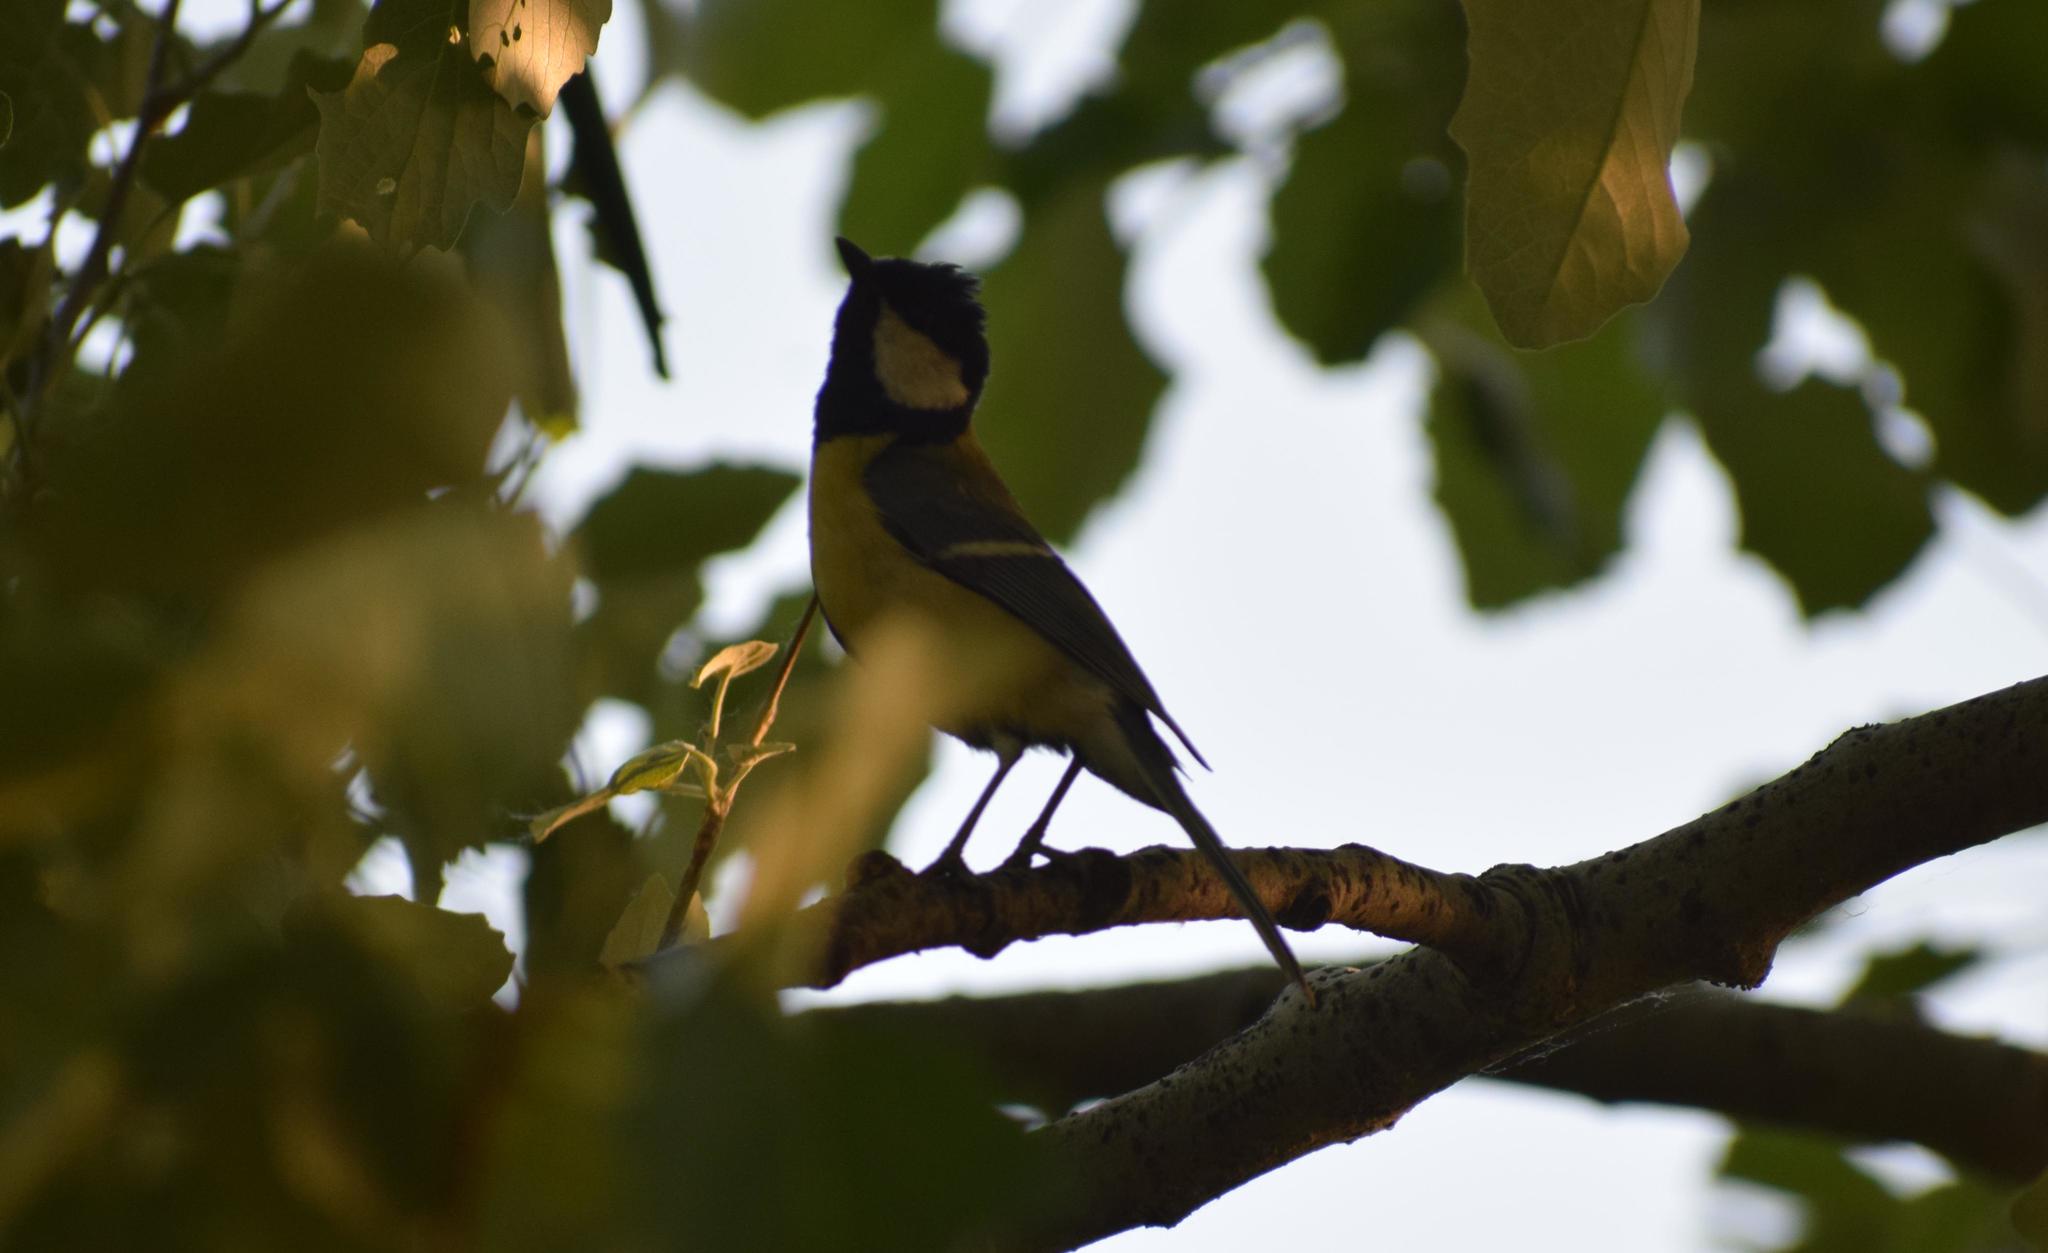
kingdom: Animalia
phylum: Chordata
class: Aves
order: Passeriformes
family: Paridae
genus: Parus
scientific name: Parus major
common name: Great tit
